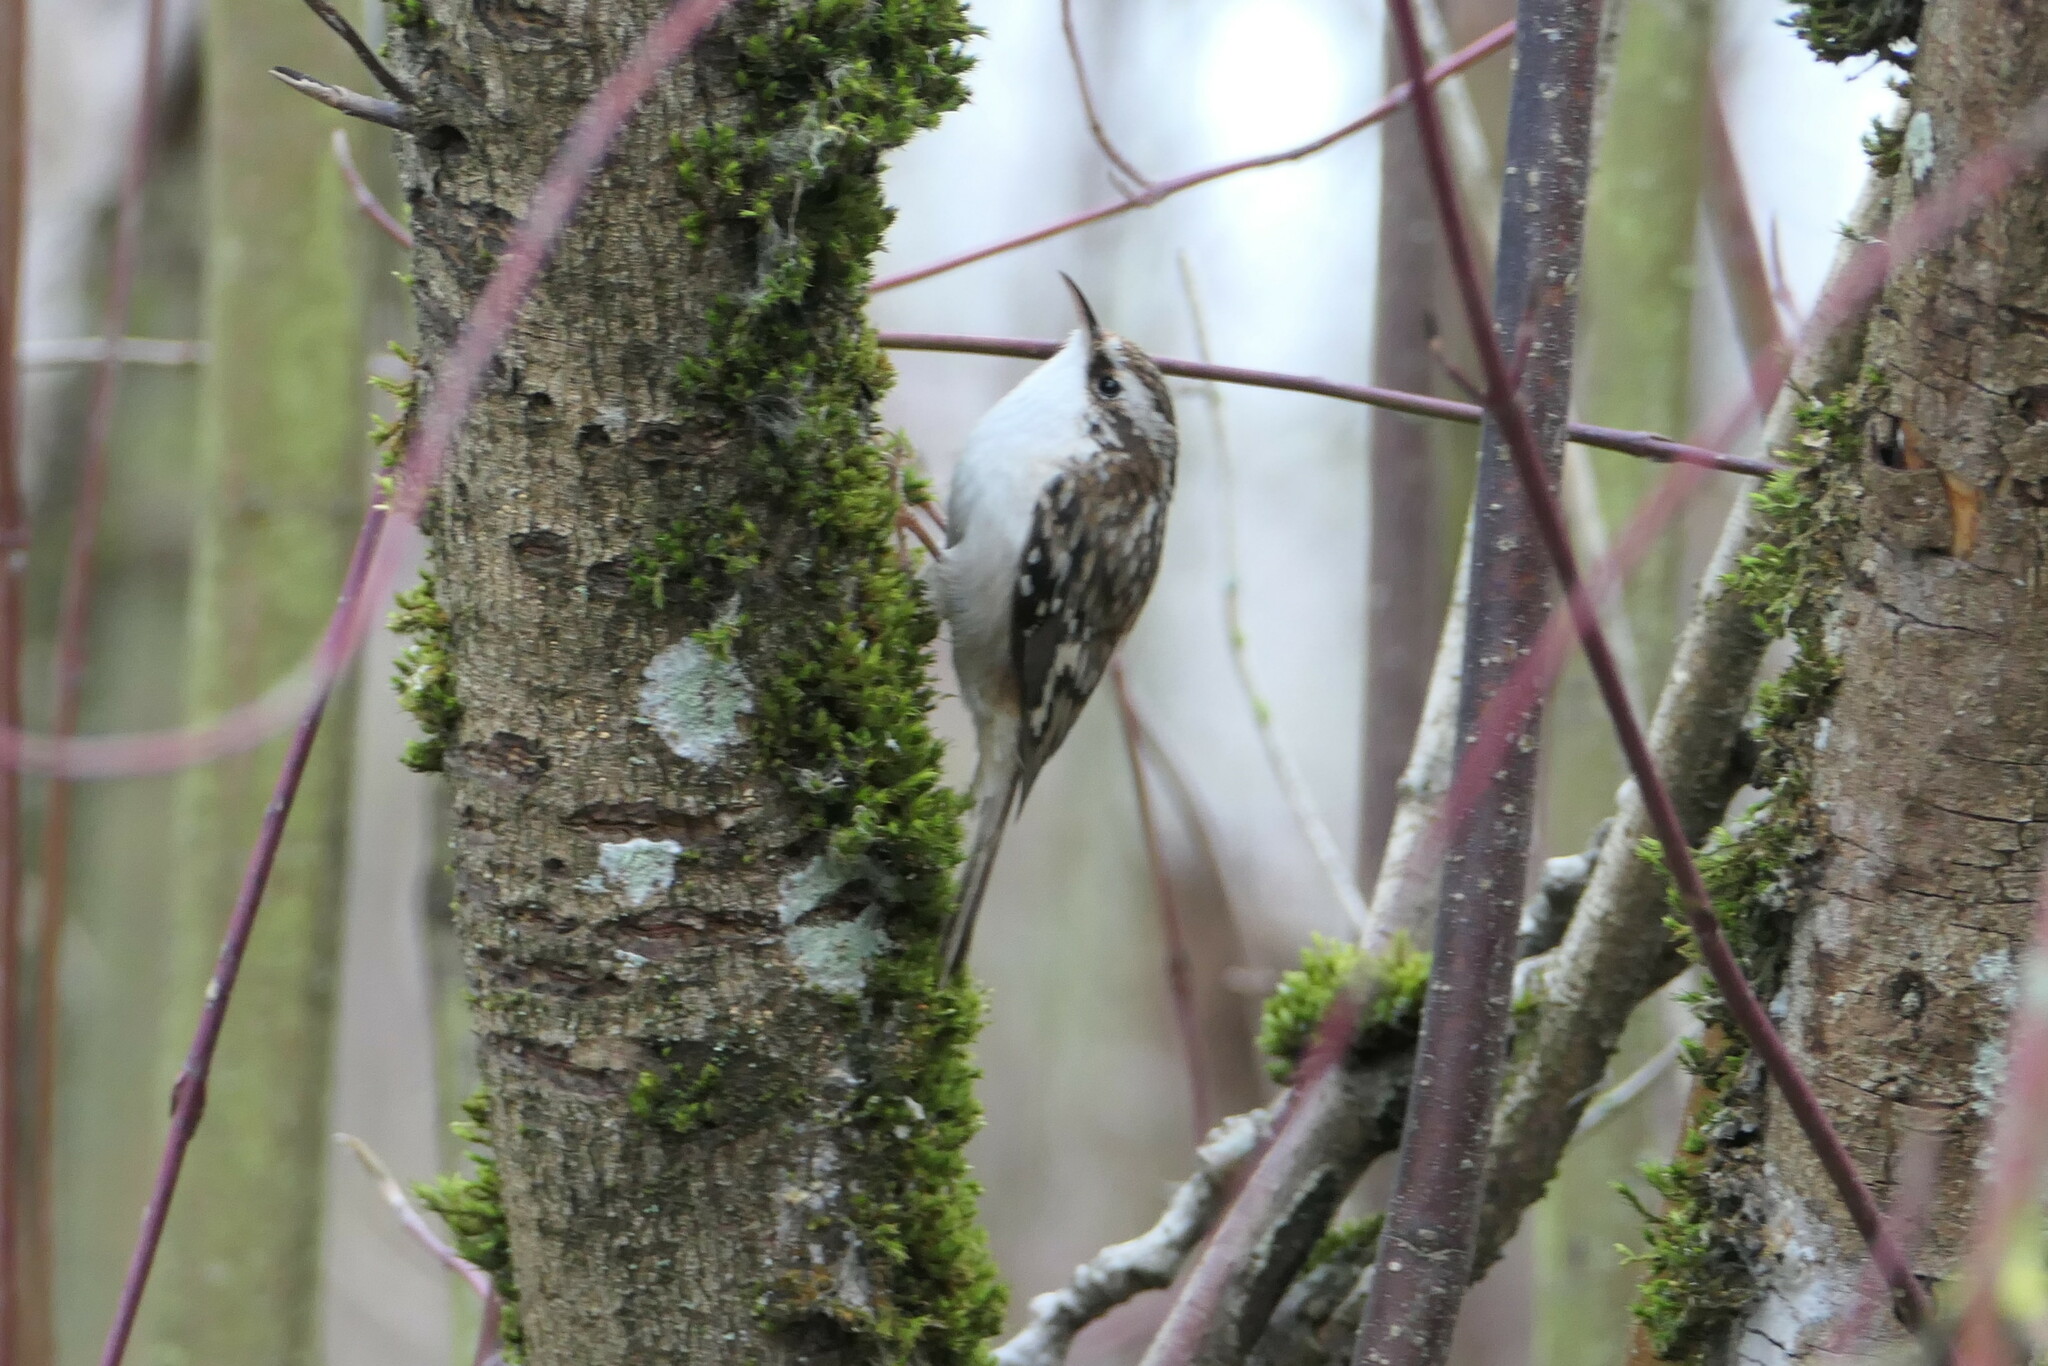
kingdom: Animalia
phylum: Chordata
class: Aves
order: Passeriformes
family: Certhiidae
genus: Certhia
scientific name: Certhia americana
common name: Brown creeper
